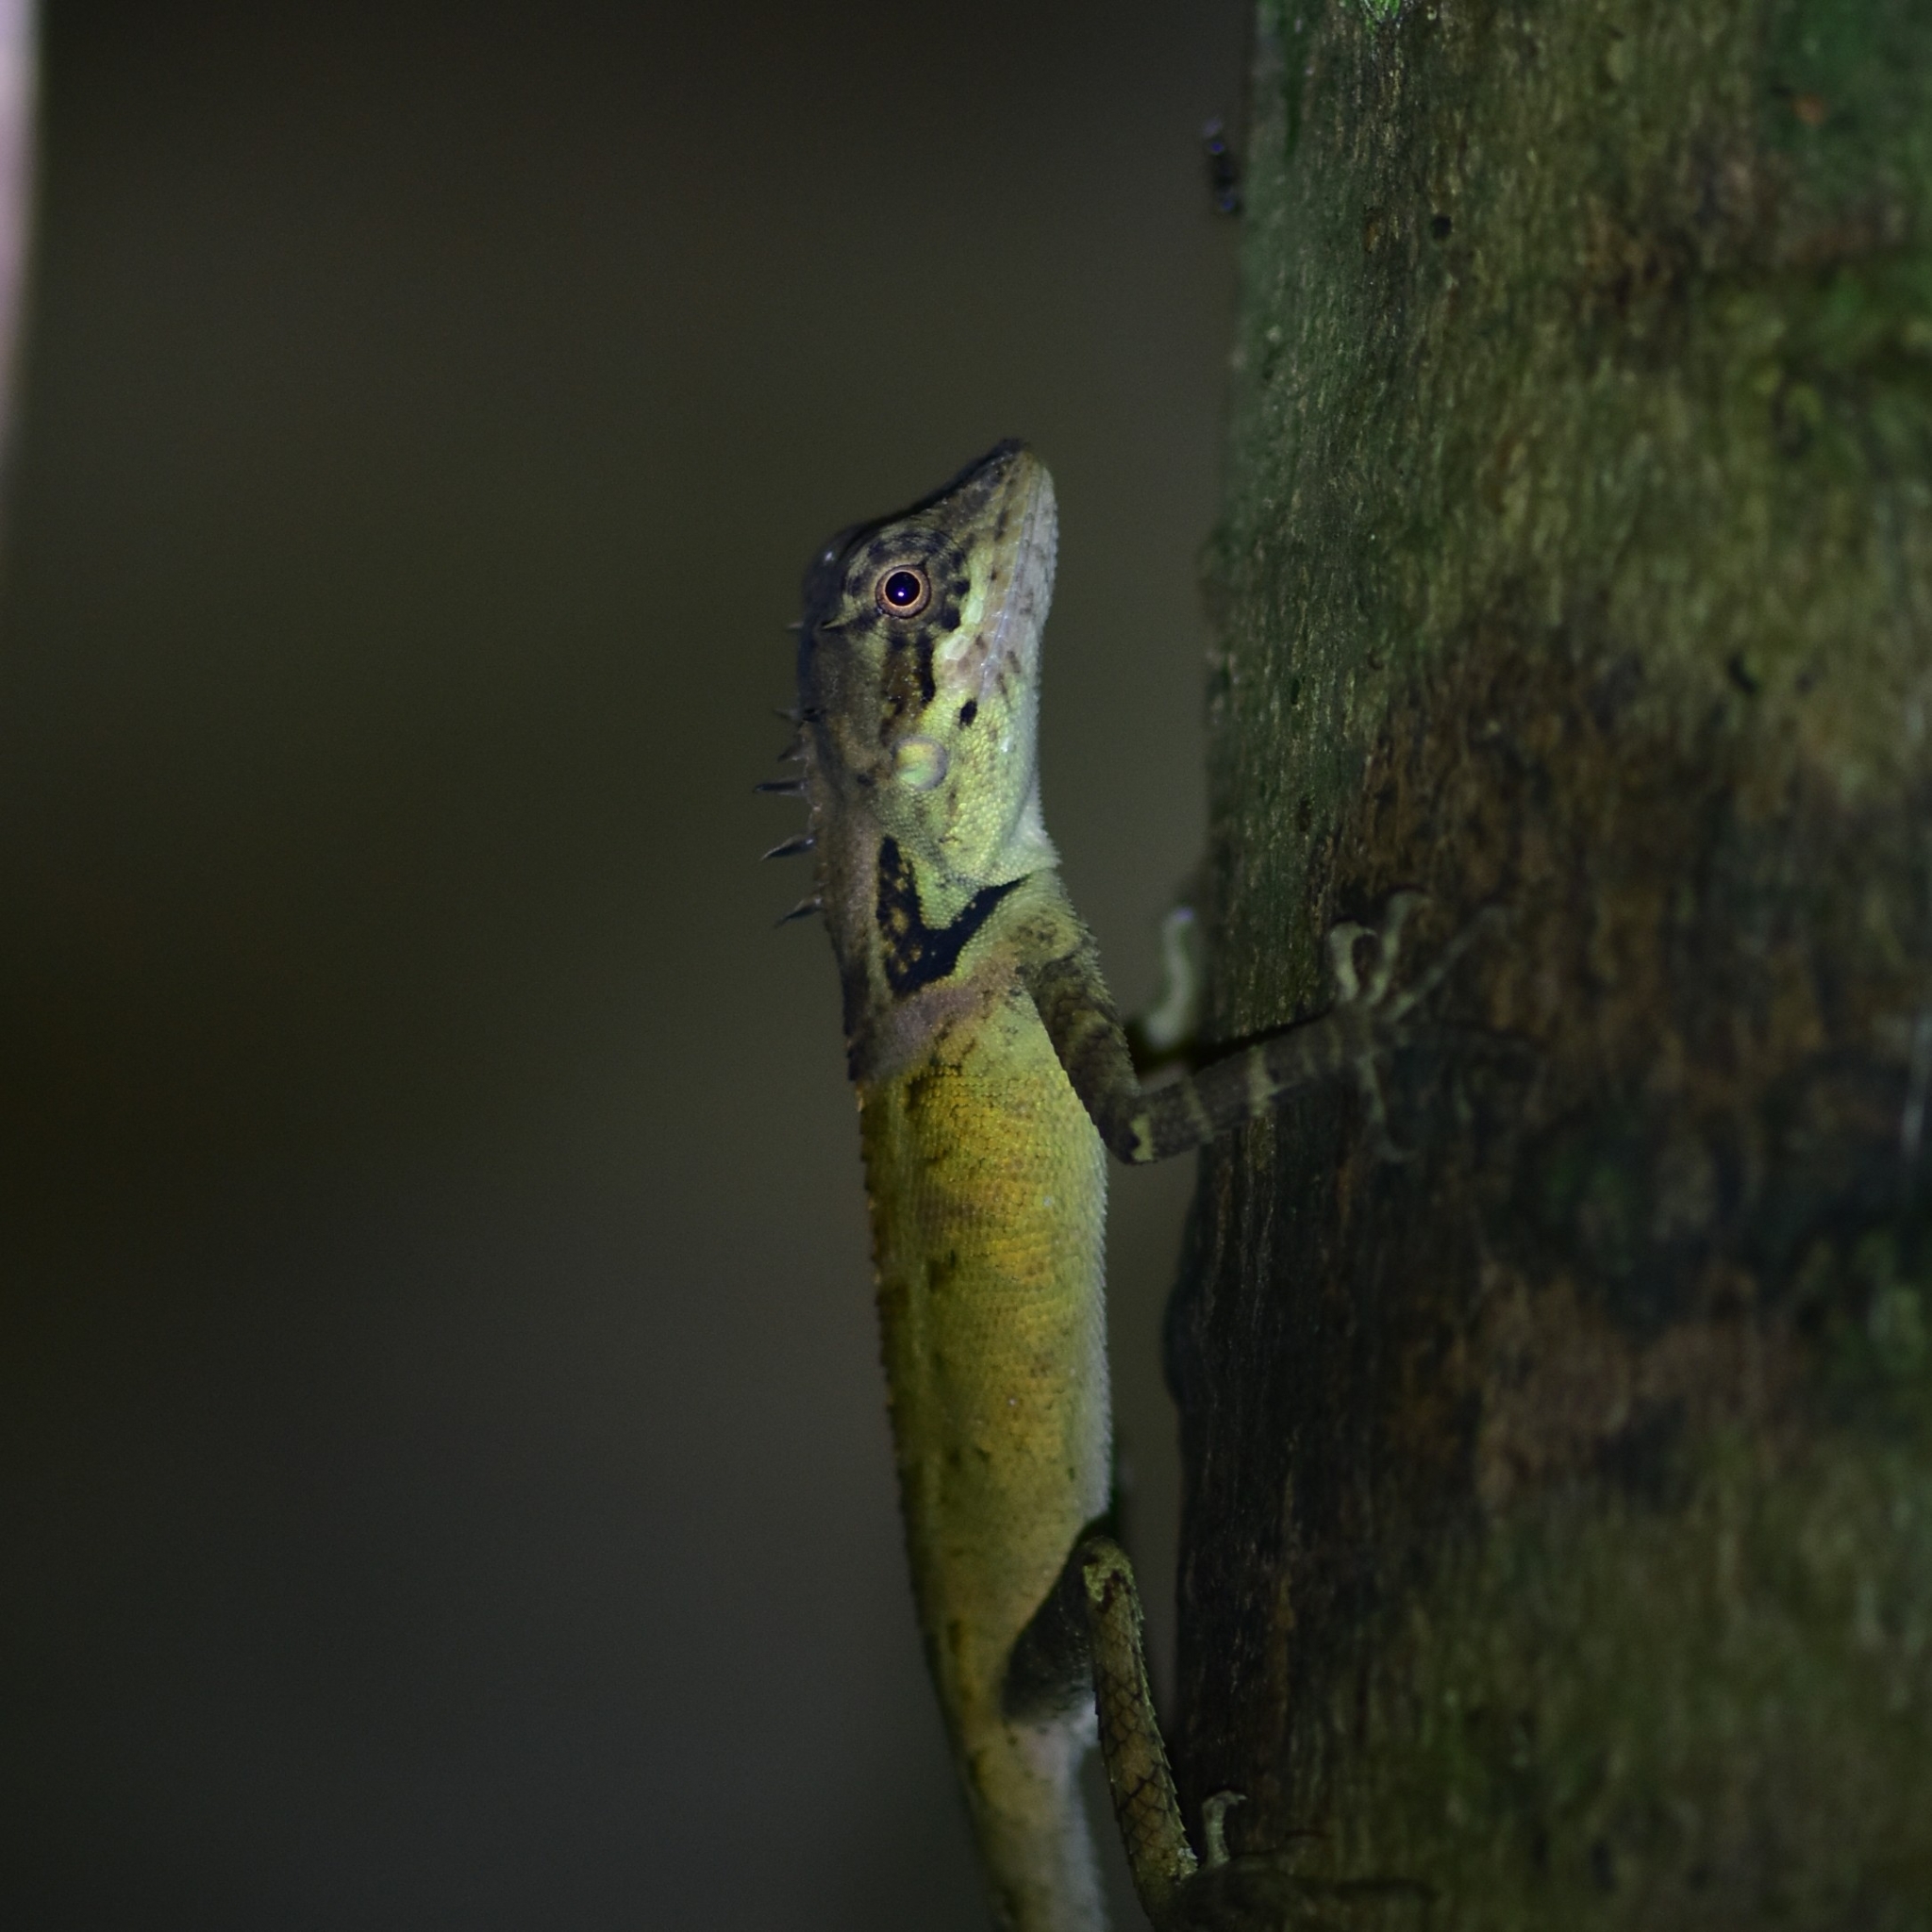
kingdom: Animalia
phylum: Chordata
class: Squamata
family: Agamidae
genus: Monilesaurus
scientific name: Monilesaurus rouxii
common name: Roux's forest lizard
